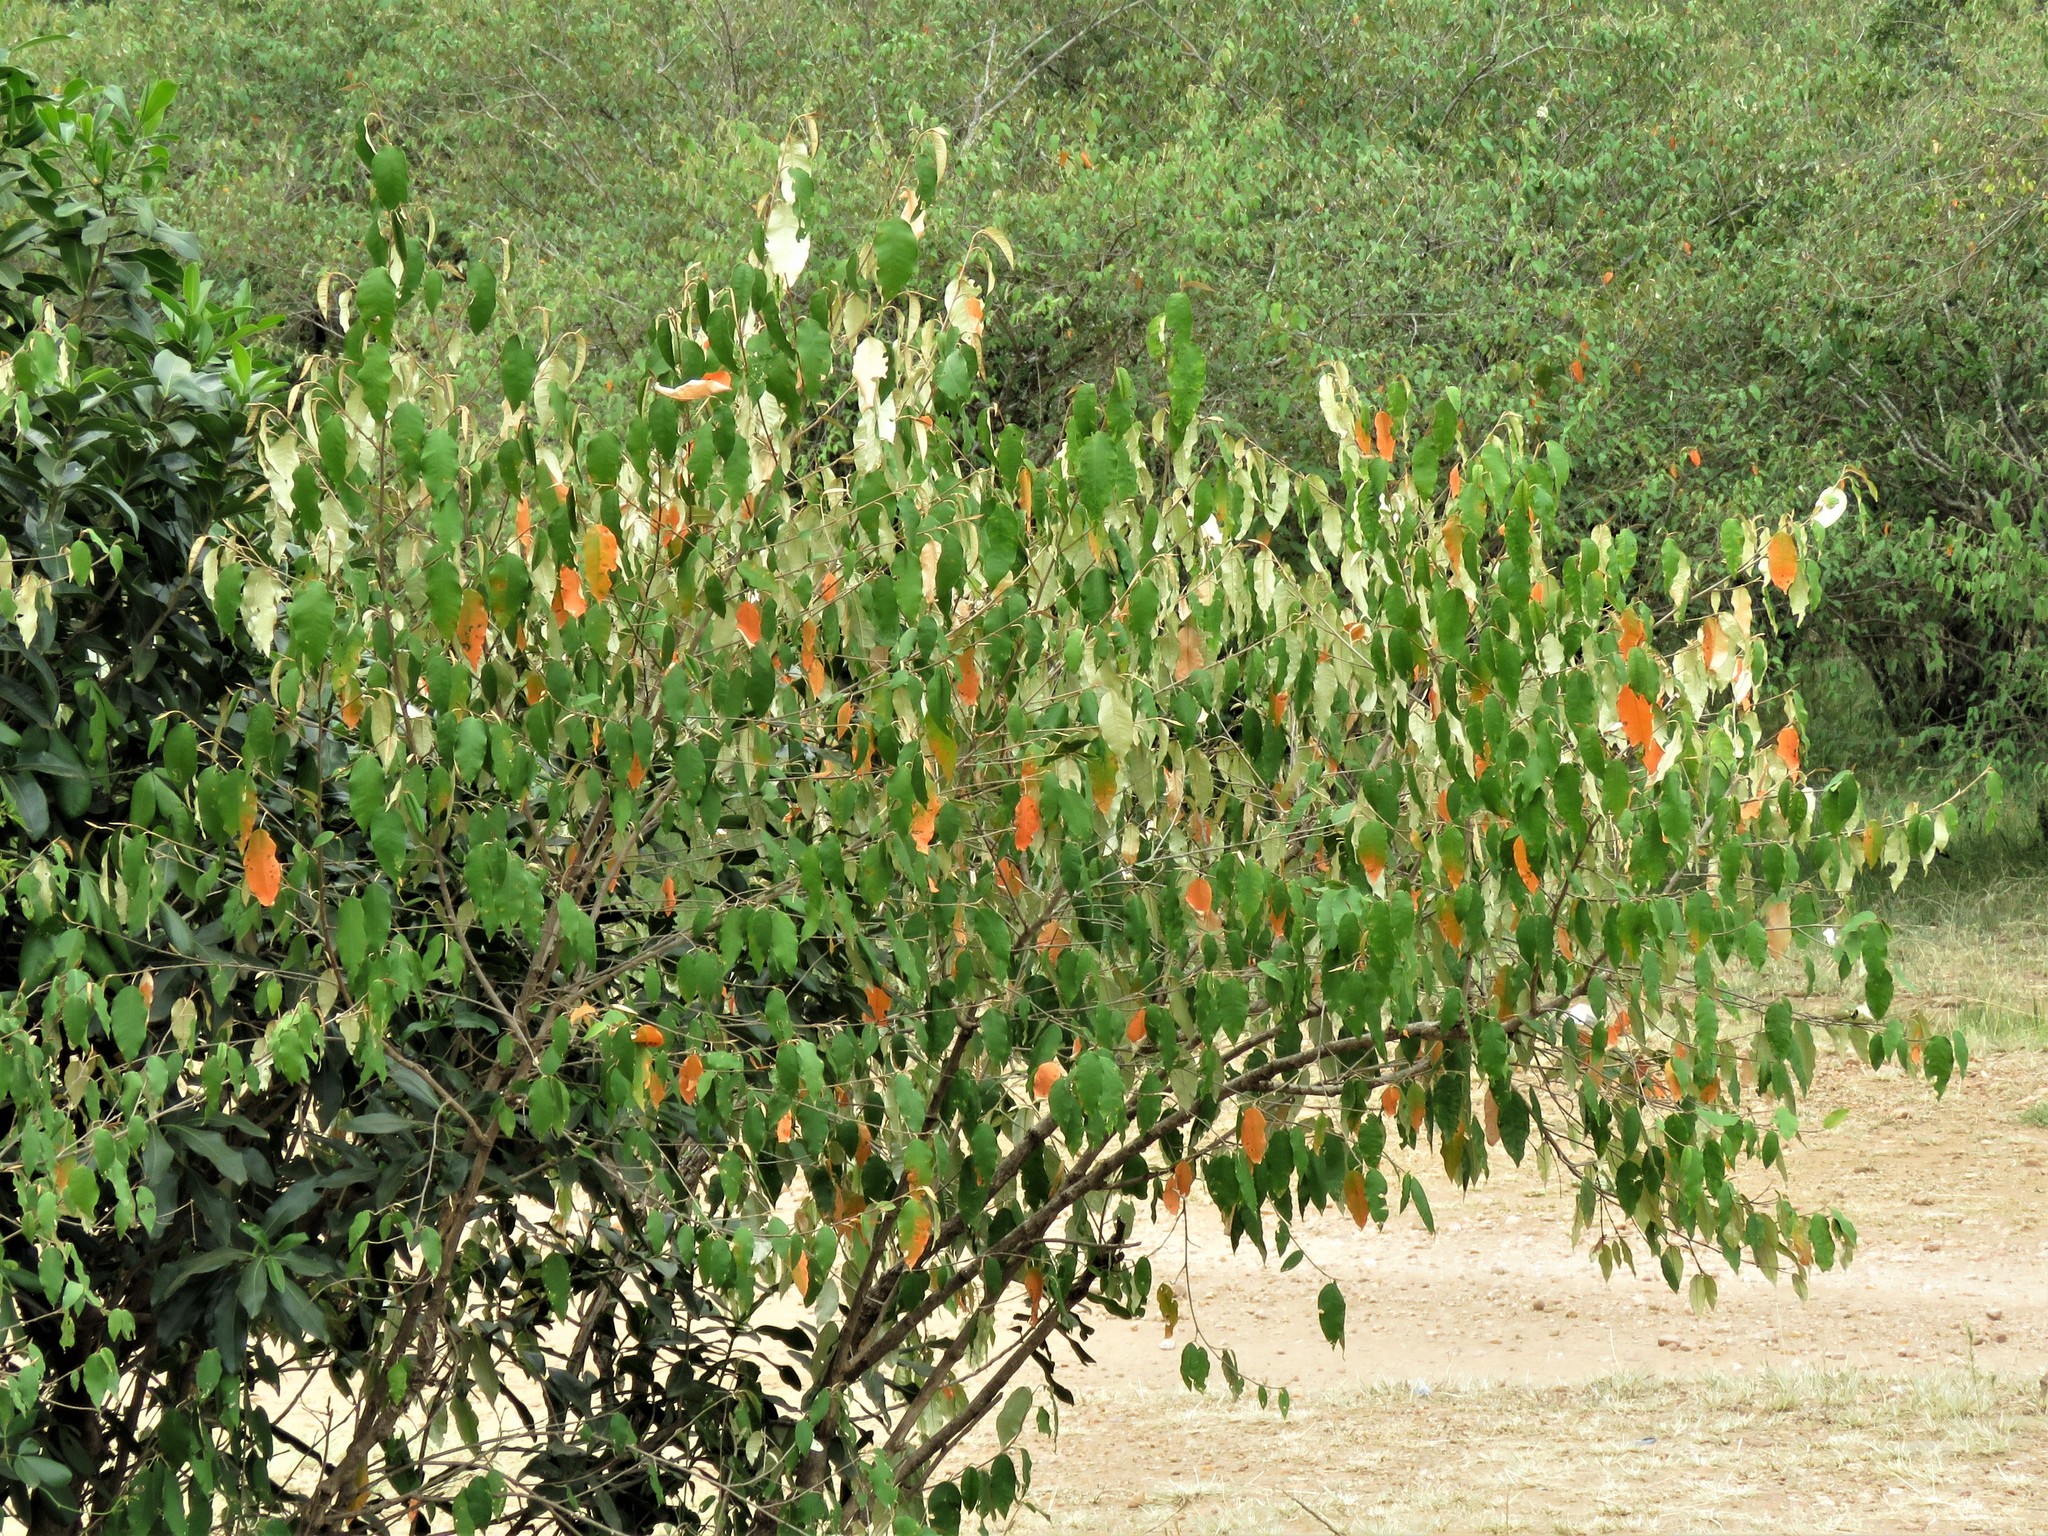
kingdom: Plantae
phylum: Tracheophyta
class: Magnoliopsida
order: Malpighiales
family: Euphorbiaceae
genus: Croton
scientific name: Croton dichogamus
